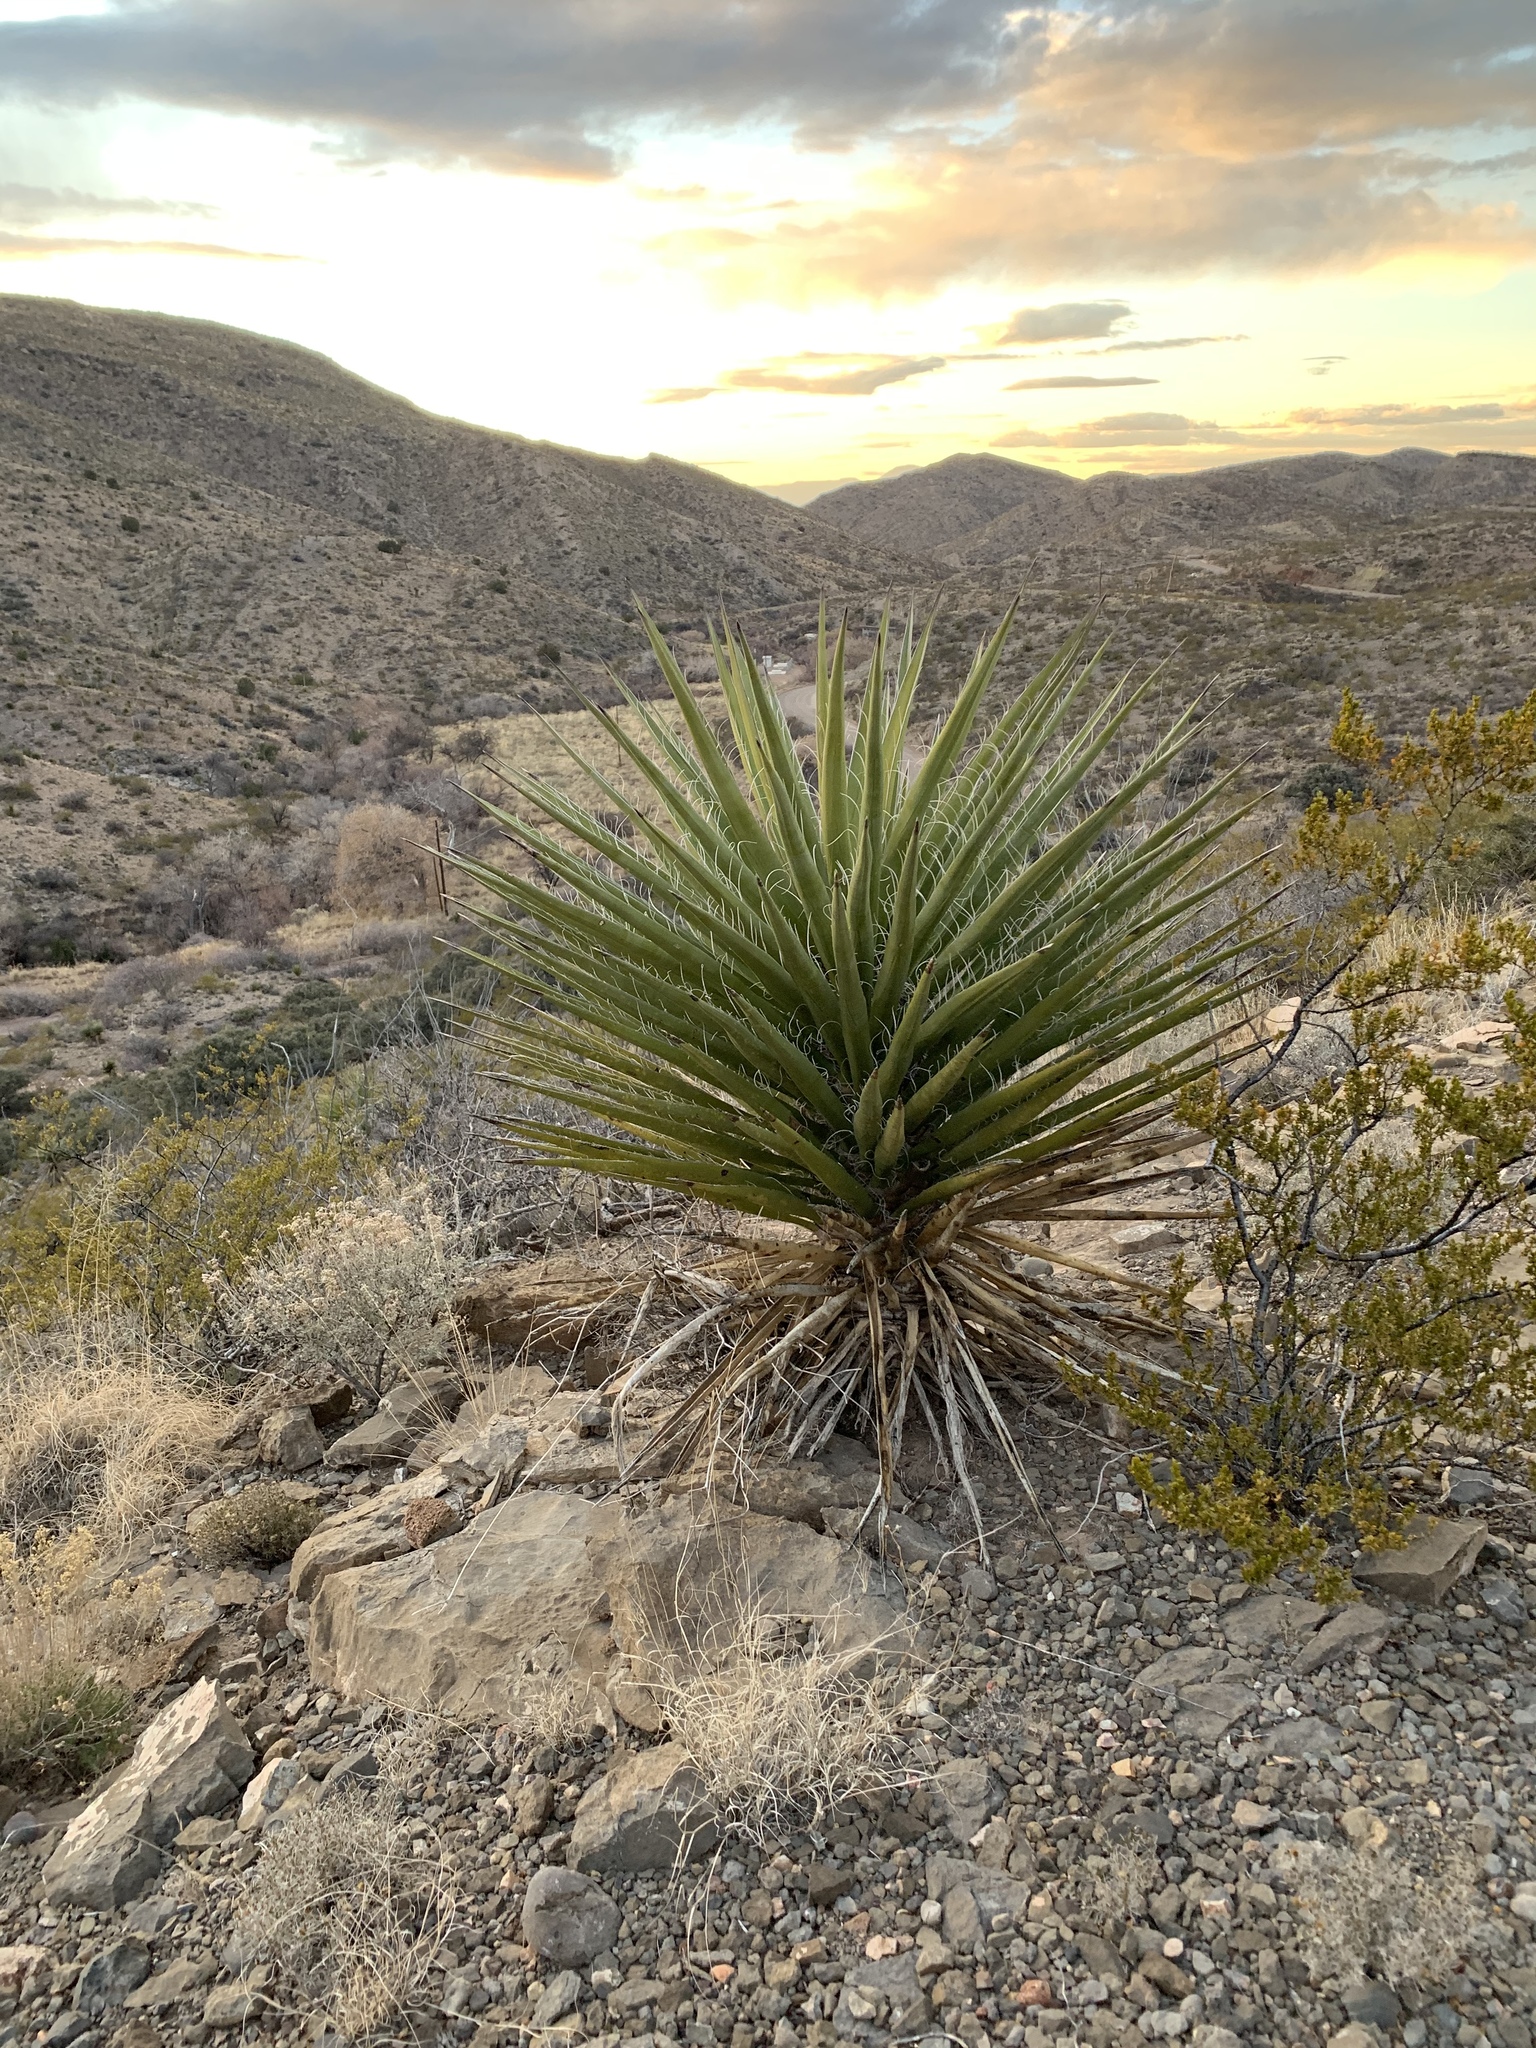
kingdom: Plantae
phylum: Tracheophyta
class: Liliopsida
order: Asparagales
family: Asparagaceae
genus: Yucca
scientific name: Yucca treculiana
